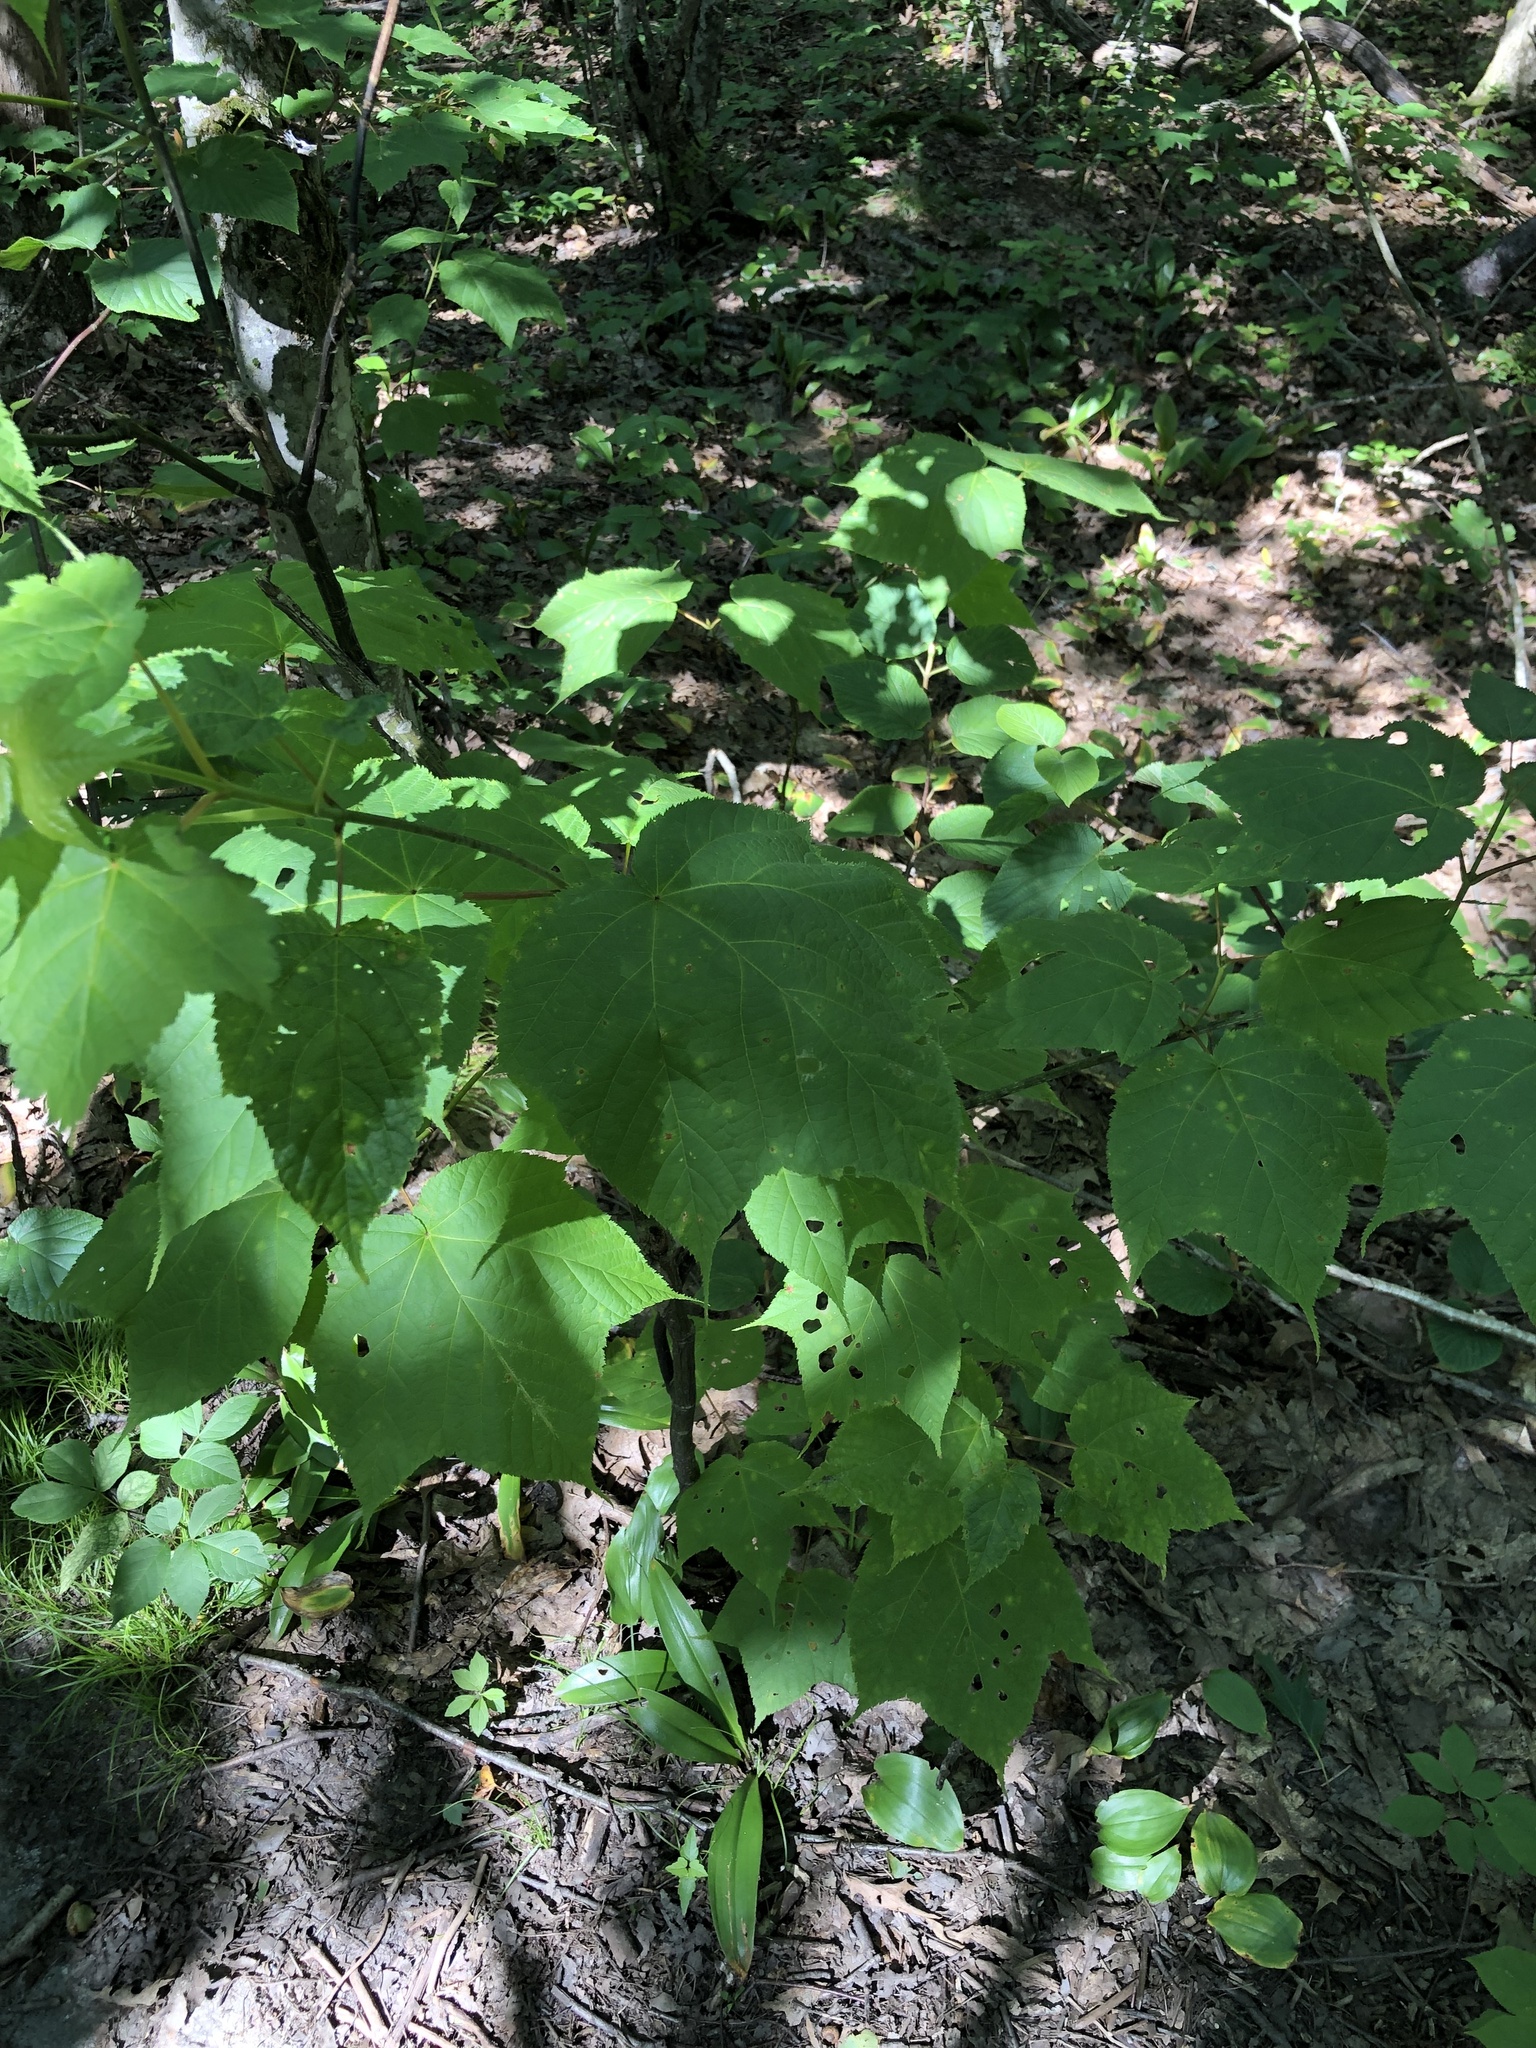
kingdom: Plantae
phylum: Tracheophyta
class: Magnoliopsida
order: Sapindales
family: Sapindaceae
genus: Acer
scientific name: Acer pensylvanicum
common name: Moosewood
